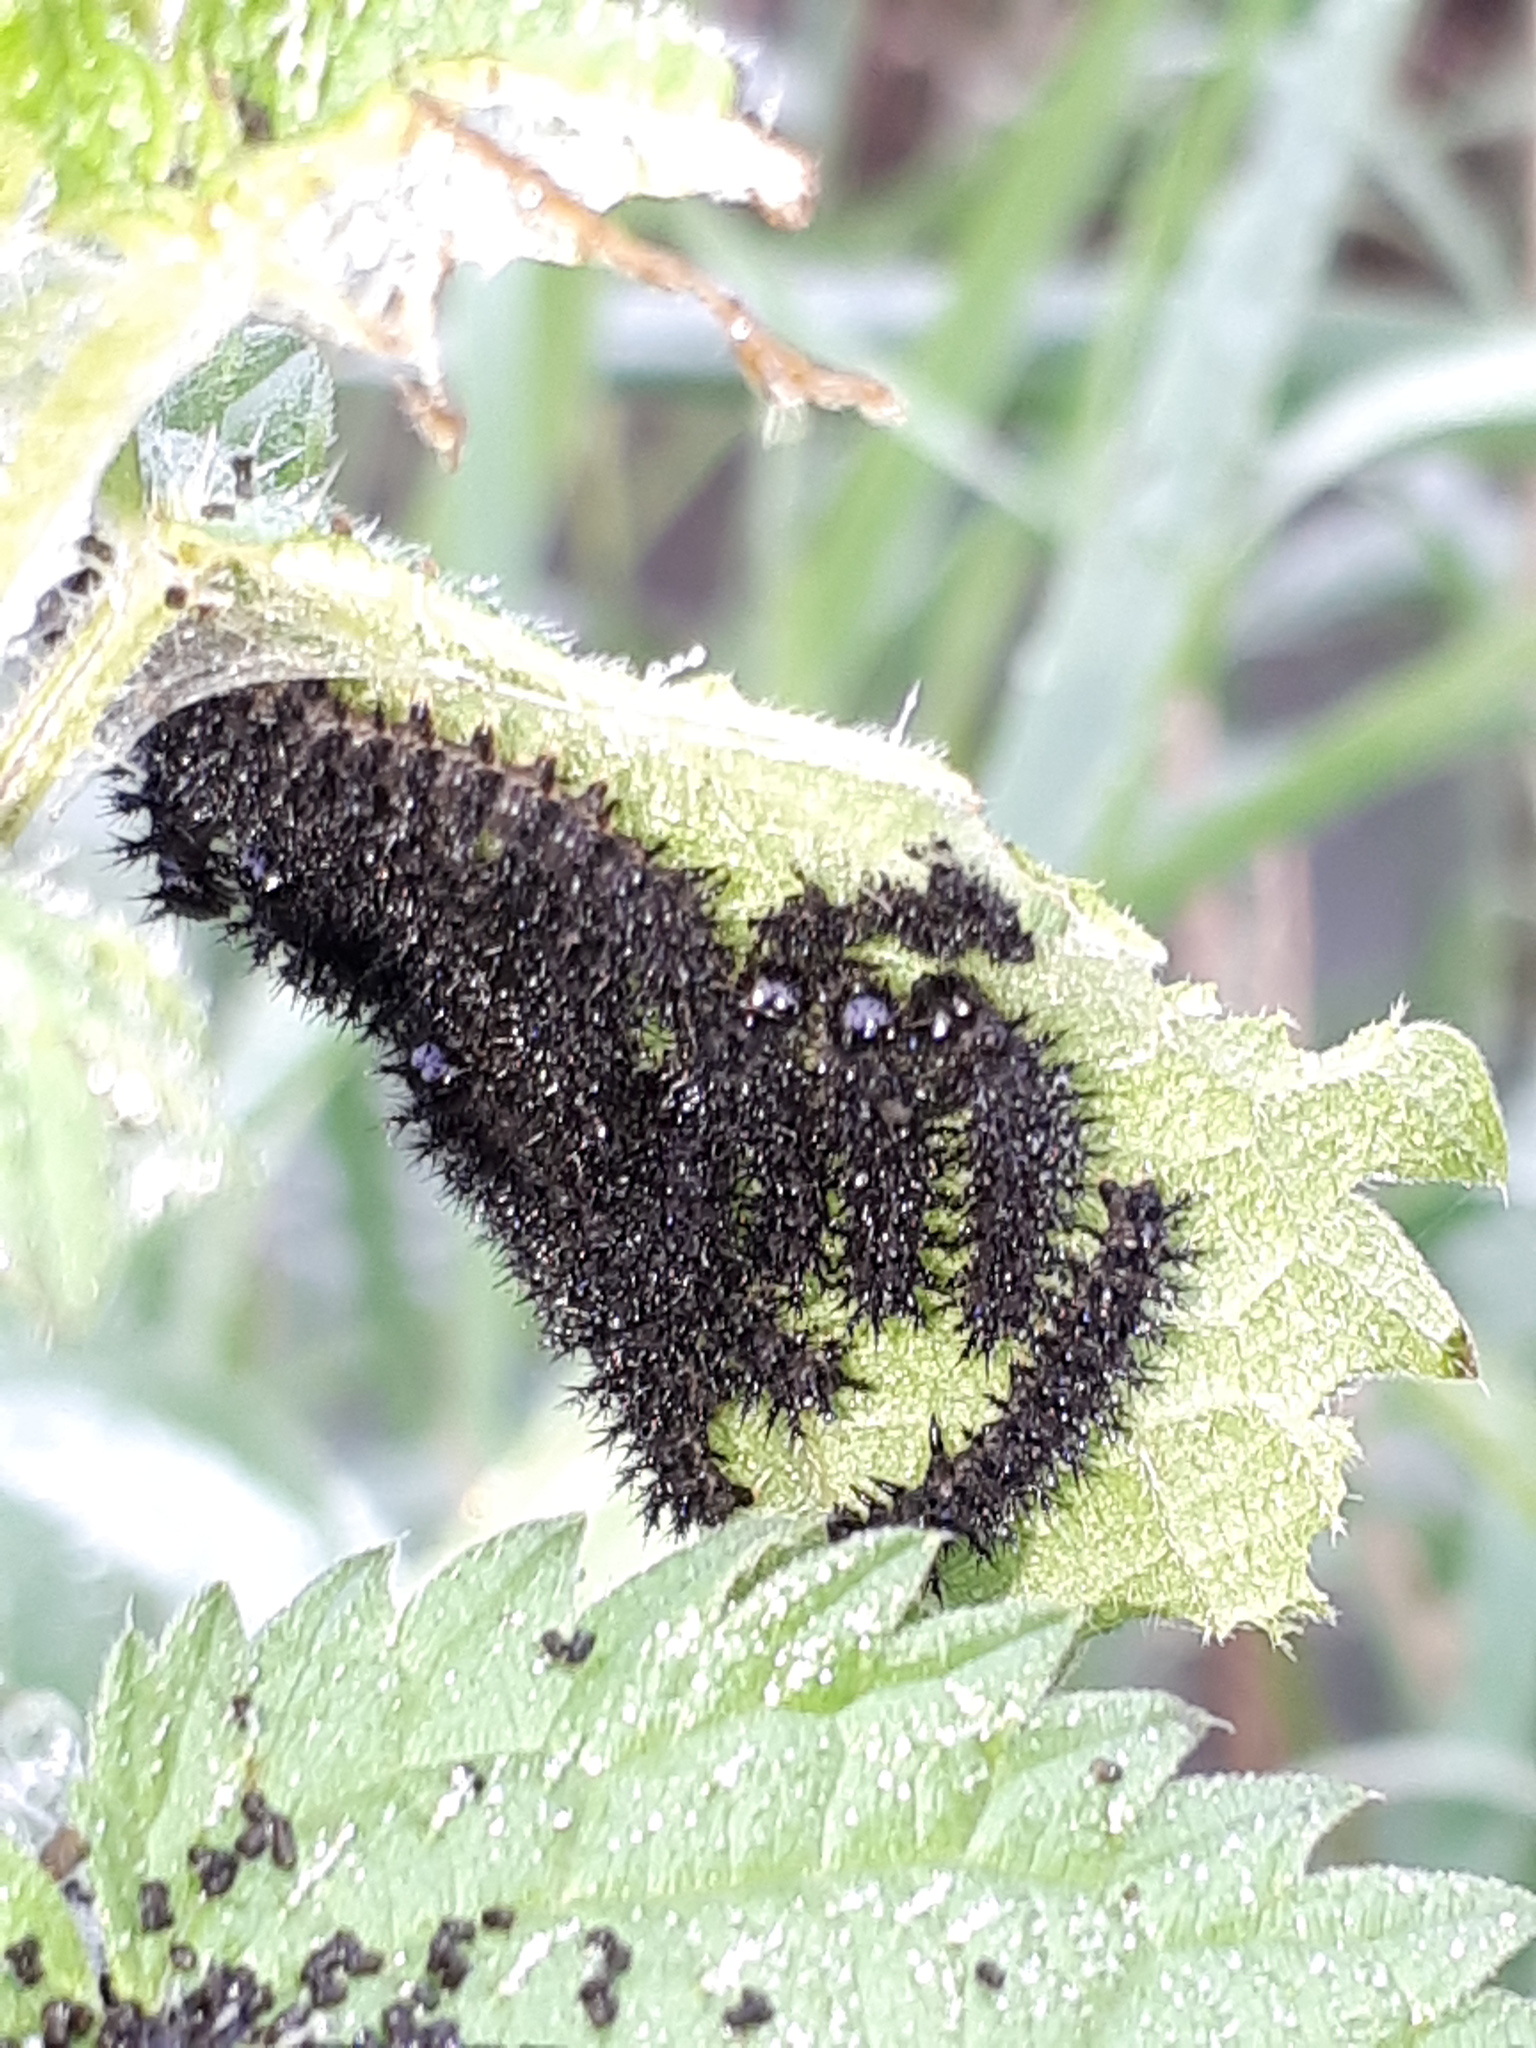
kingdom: Animalia
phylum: Arthropoda
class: Insecta
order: Lepidoptera
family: Nymphalidae
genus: Araschnia
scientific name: Araschnia levana
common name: Map butterfly
